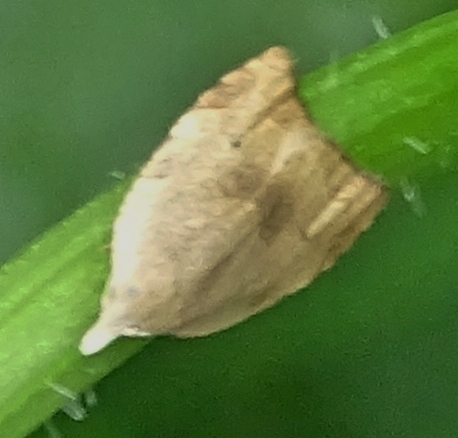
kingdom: Animalia
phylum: Arthropoda
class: Insecta
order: Lepidoptera
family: Tortricidae
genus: Coelostathma
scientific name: Coelostathma discopunctana
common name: Batman moth
